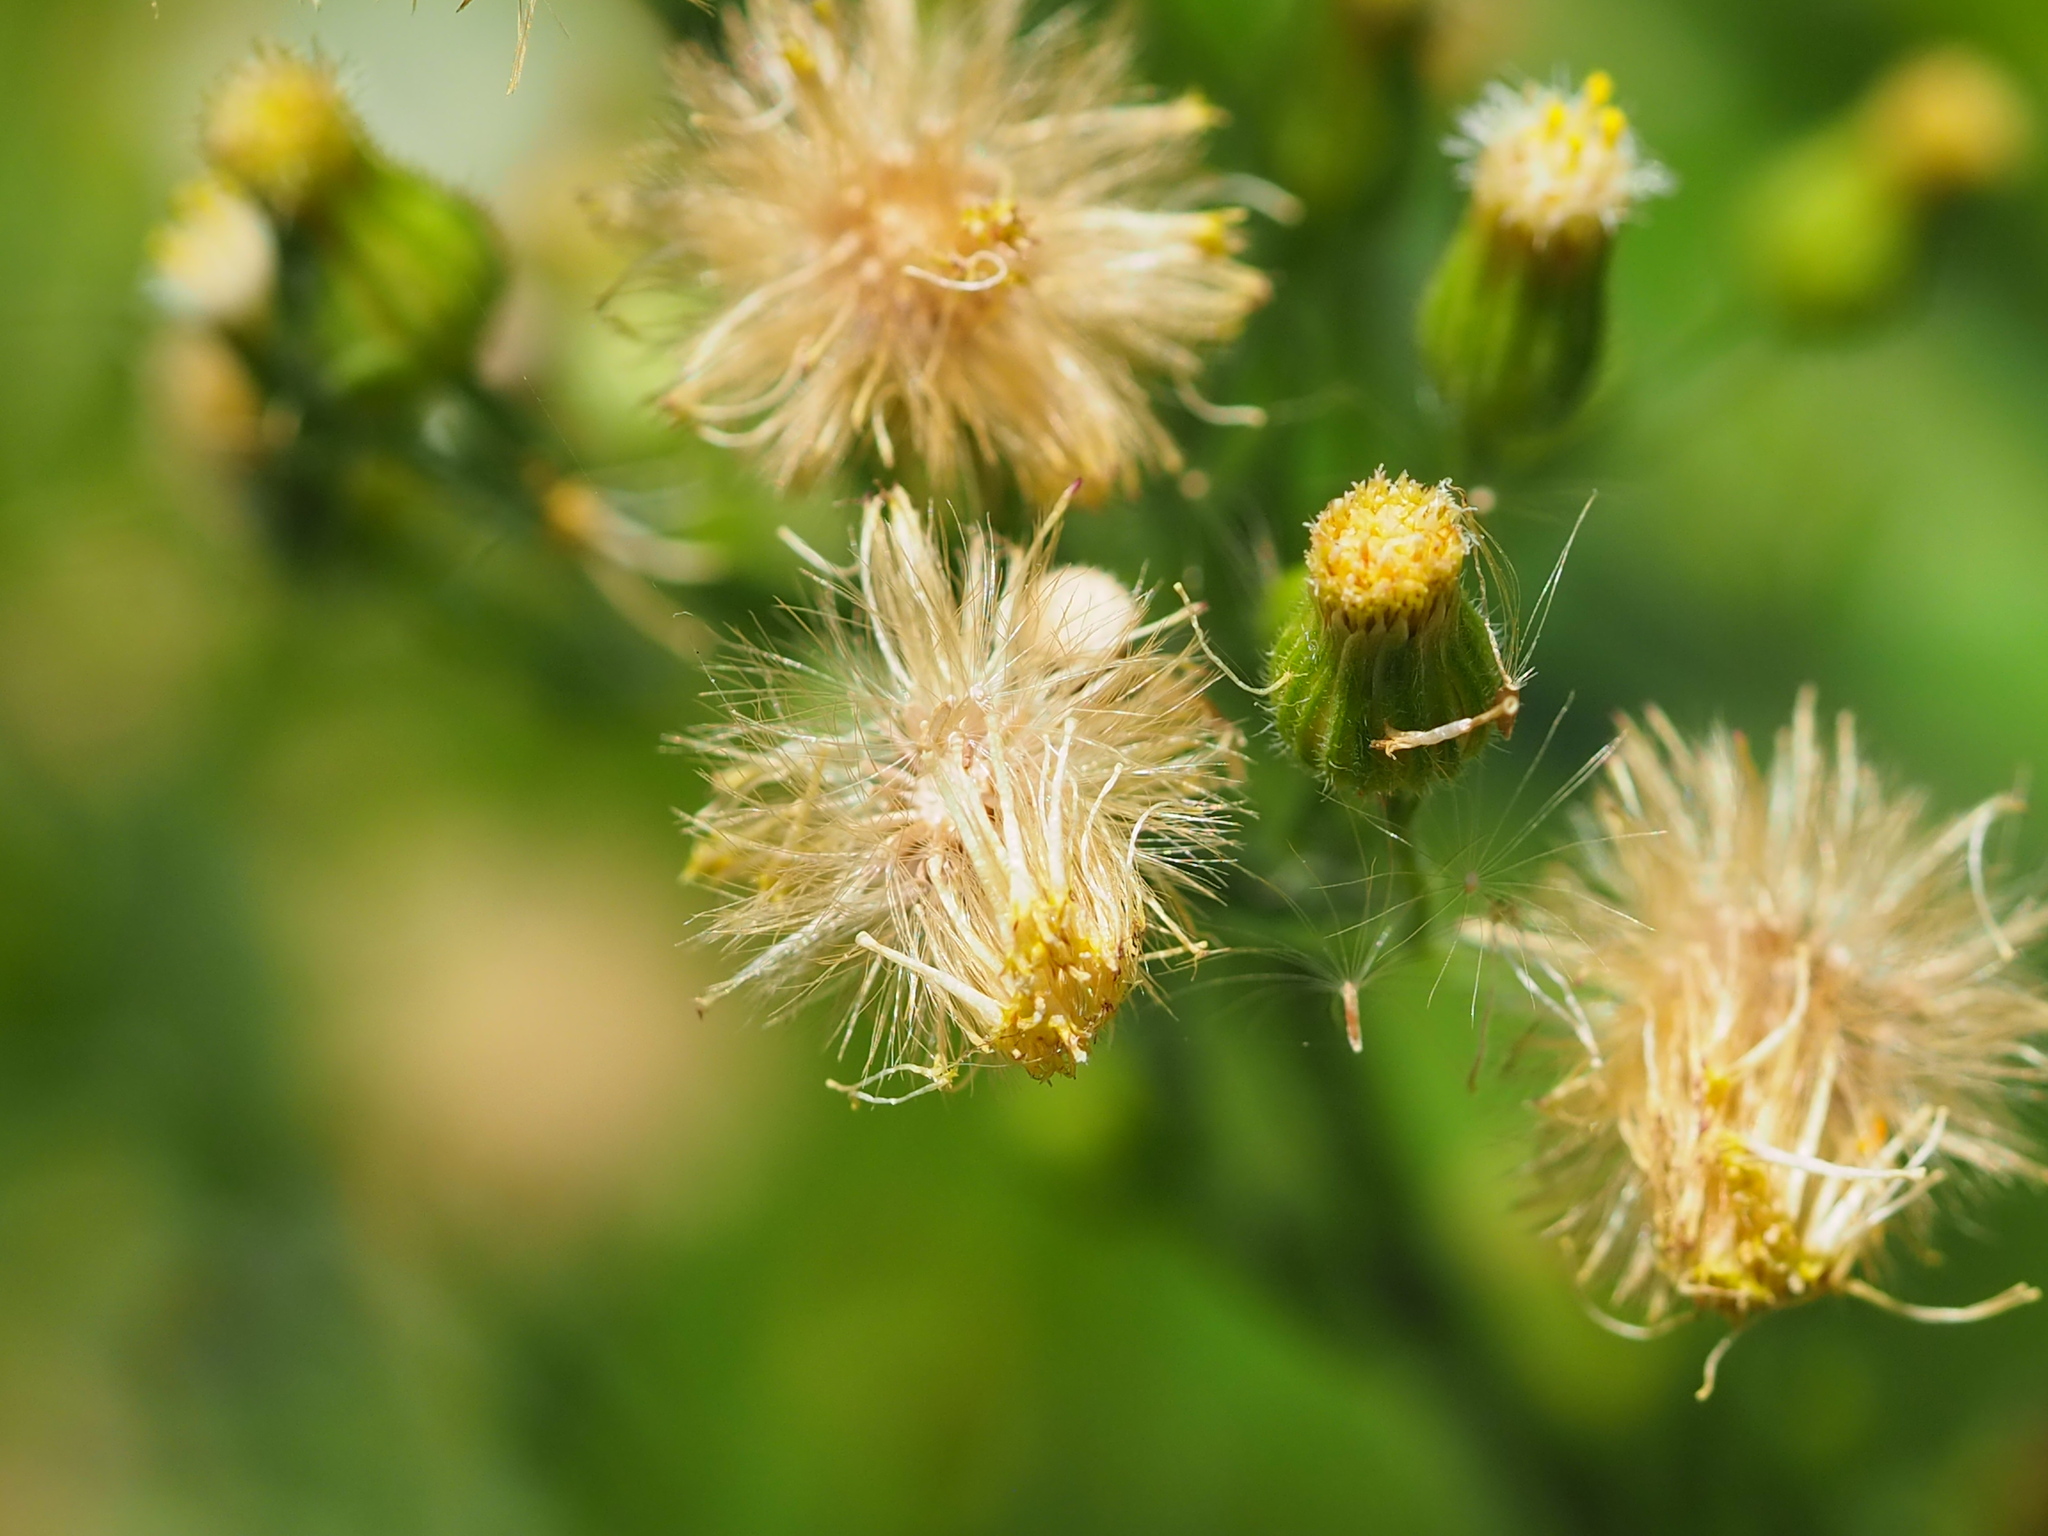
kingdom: Plantae
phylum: Tracheophyta
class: Magnoliopsida
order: Asterales
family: Asteraceae
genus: Erigeron
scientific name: Erigeron sumatrensis
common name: Daisy
